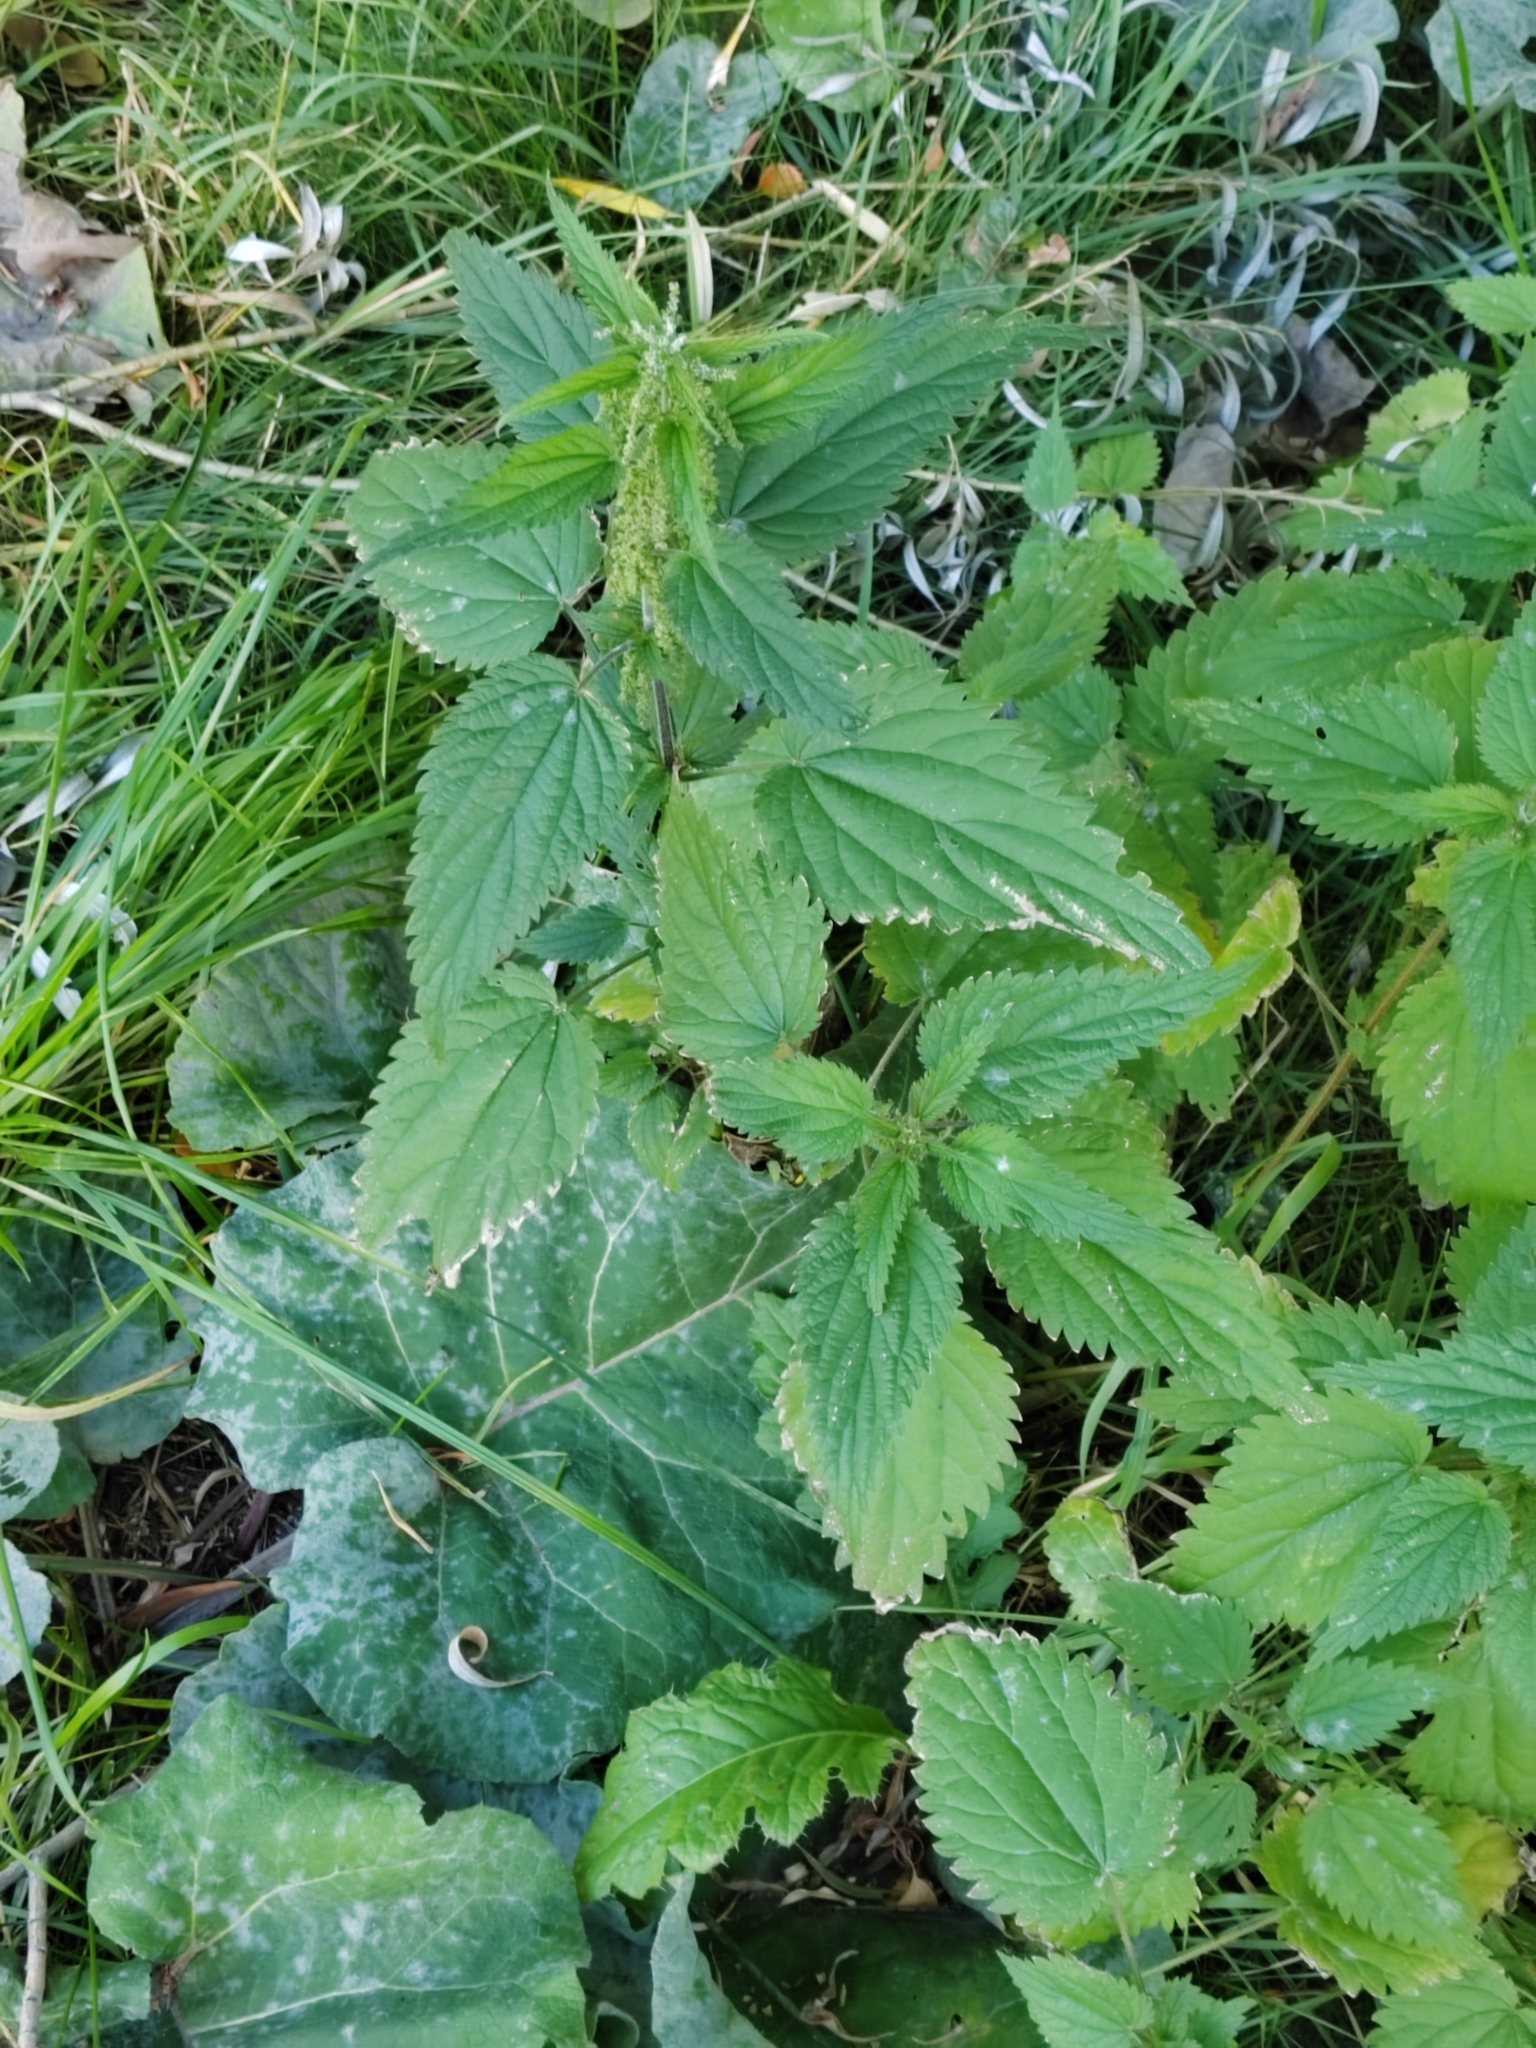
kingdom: Plantae
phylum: Tracheophyta
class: Magnoliopsida
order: Rosales
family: Urticaceae
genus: Urtica
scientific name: Urtica dioica
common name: Common nettle
